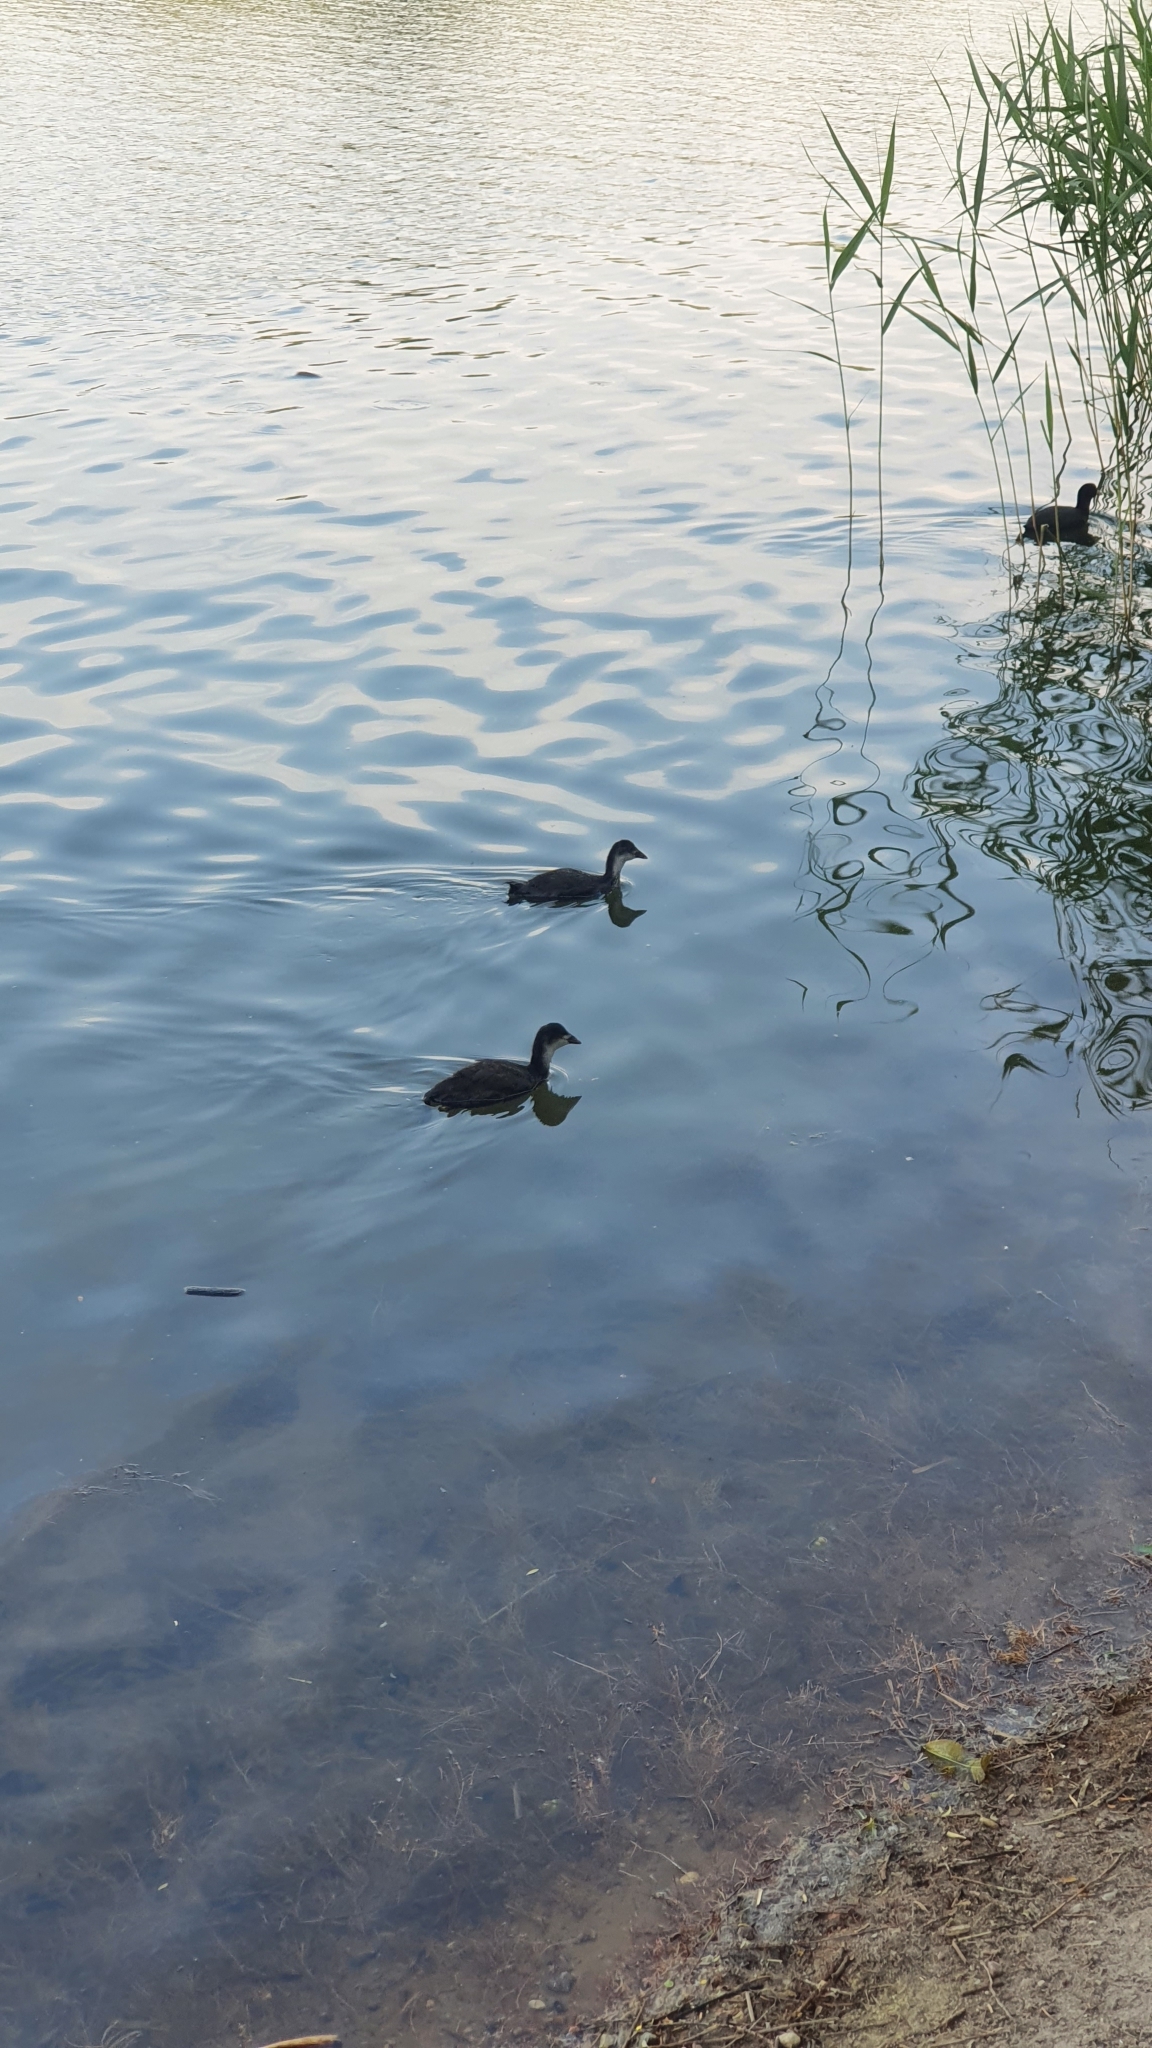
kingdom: Animalia
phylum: Chordata
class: Aves
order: Gruiformes
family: Rallidae
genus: Fulica
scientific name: Fulica atra
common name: Eurasian coot
